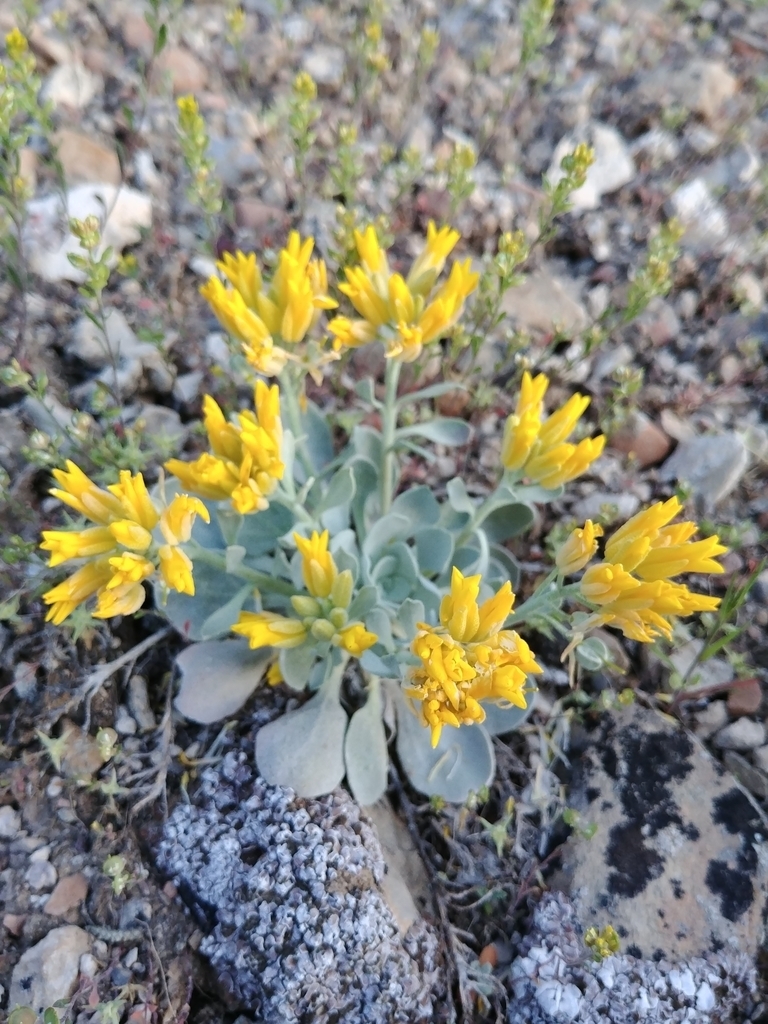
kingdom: Plantae
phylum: Tracheophyta
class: Magnoliopsida
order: Brassicales
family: Brassicaceae
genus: Physaria
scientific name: Physaria chambersii
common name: Chamber's twinpod
